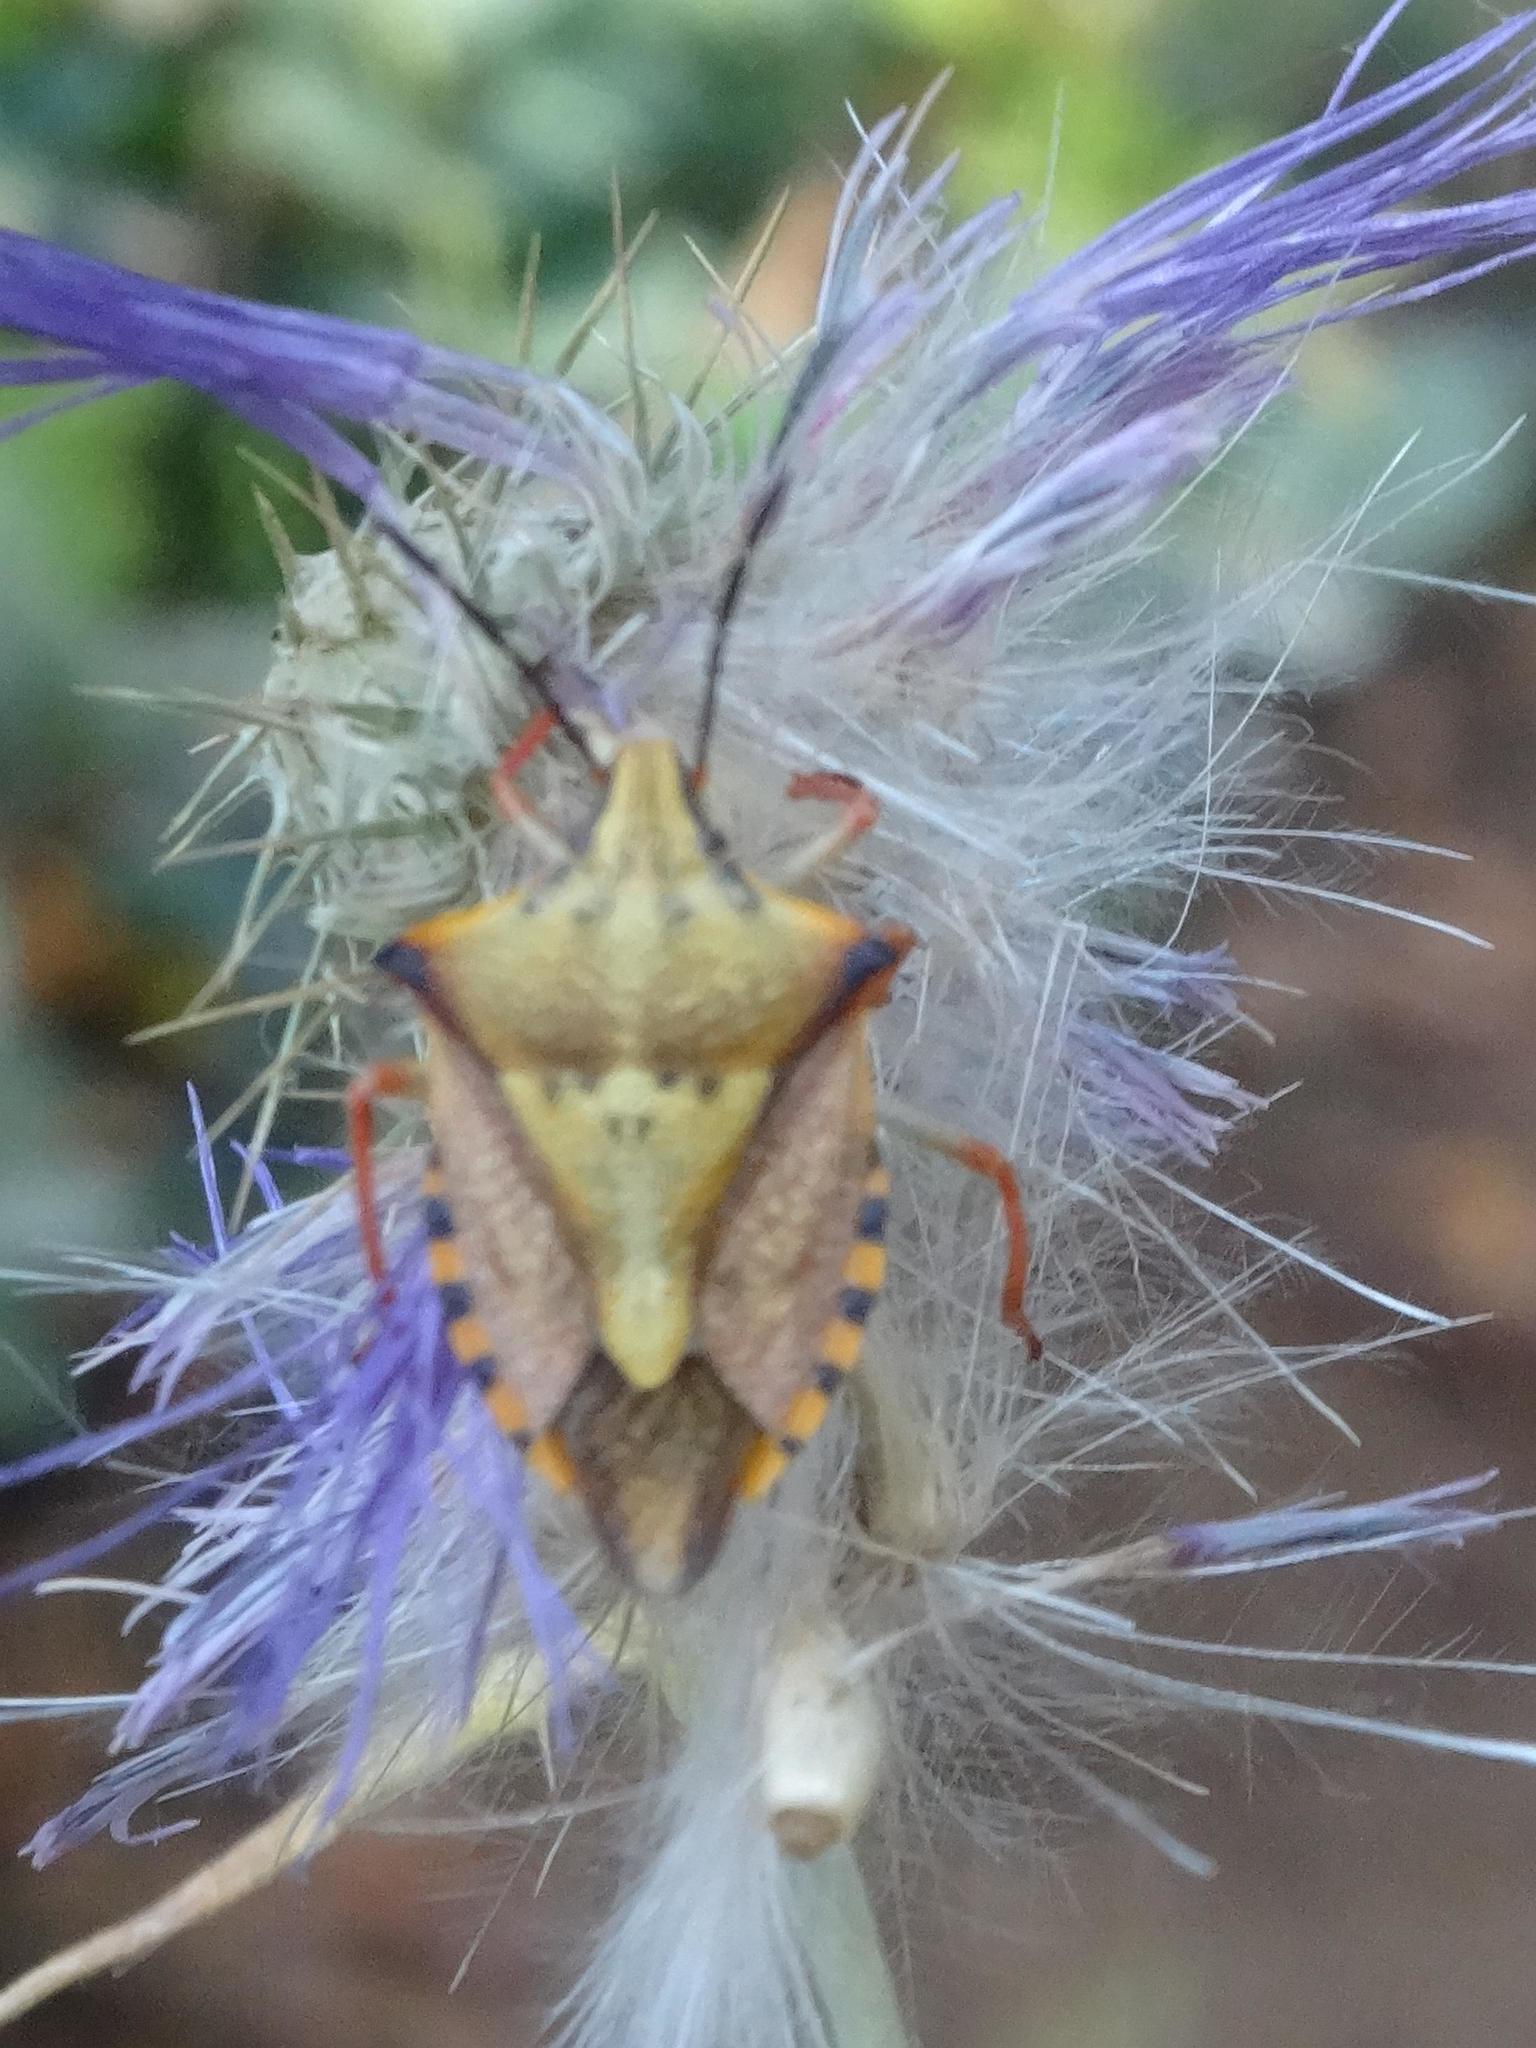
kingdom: Animalia
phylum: Arthropoda
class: Insecta
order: Hemiptera
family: Pentatomidae
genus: Carpocoris
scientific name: Carpocoris mediterraneus
